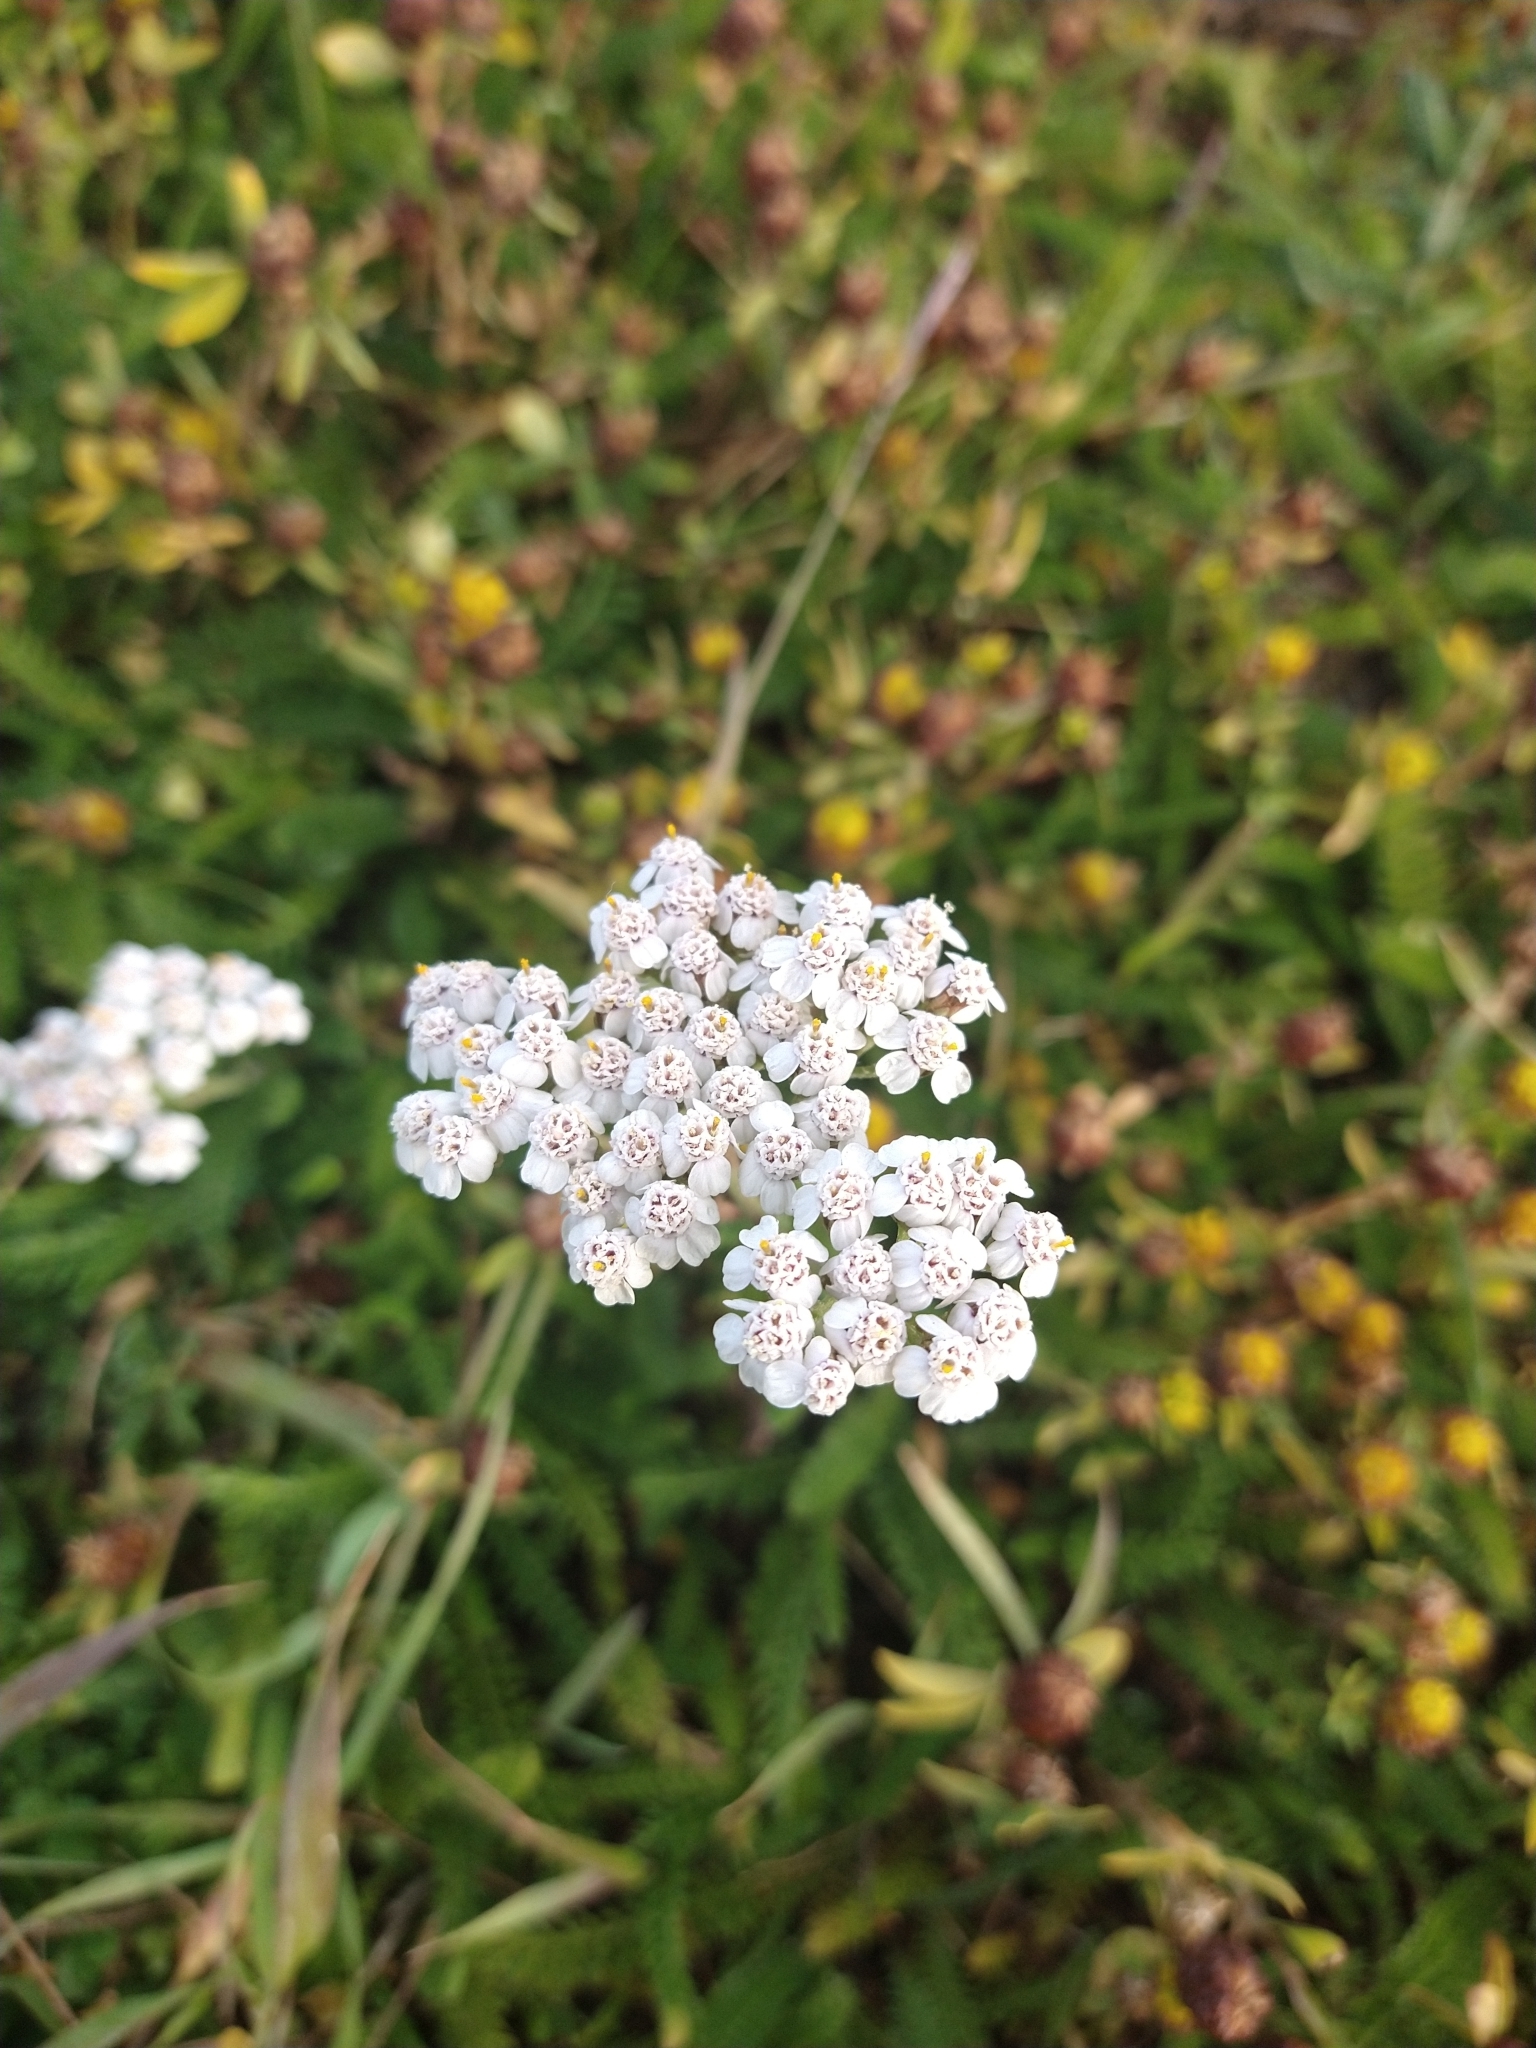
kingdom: Plantae
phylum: Tracheophyta
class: Magnoliopsida
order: Asterales
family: Asteraceae
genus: Achillea
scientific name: Achillea millefolium
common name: Yarrow
